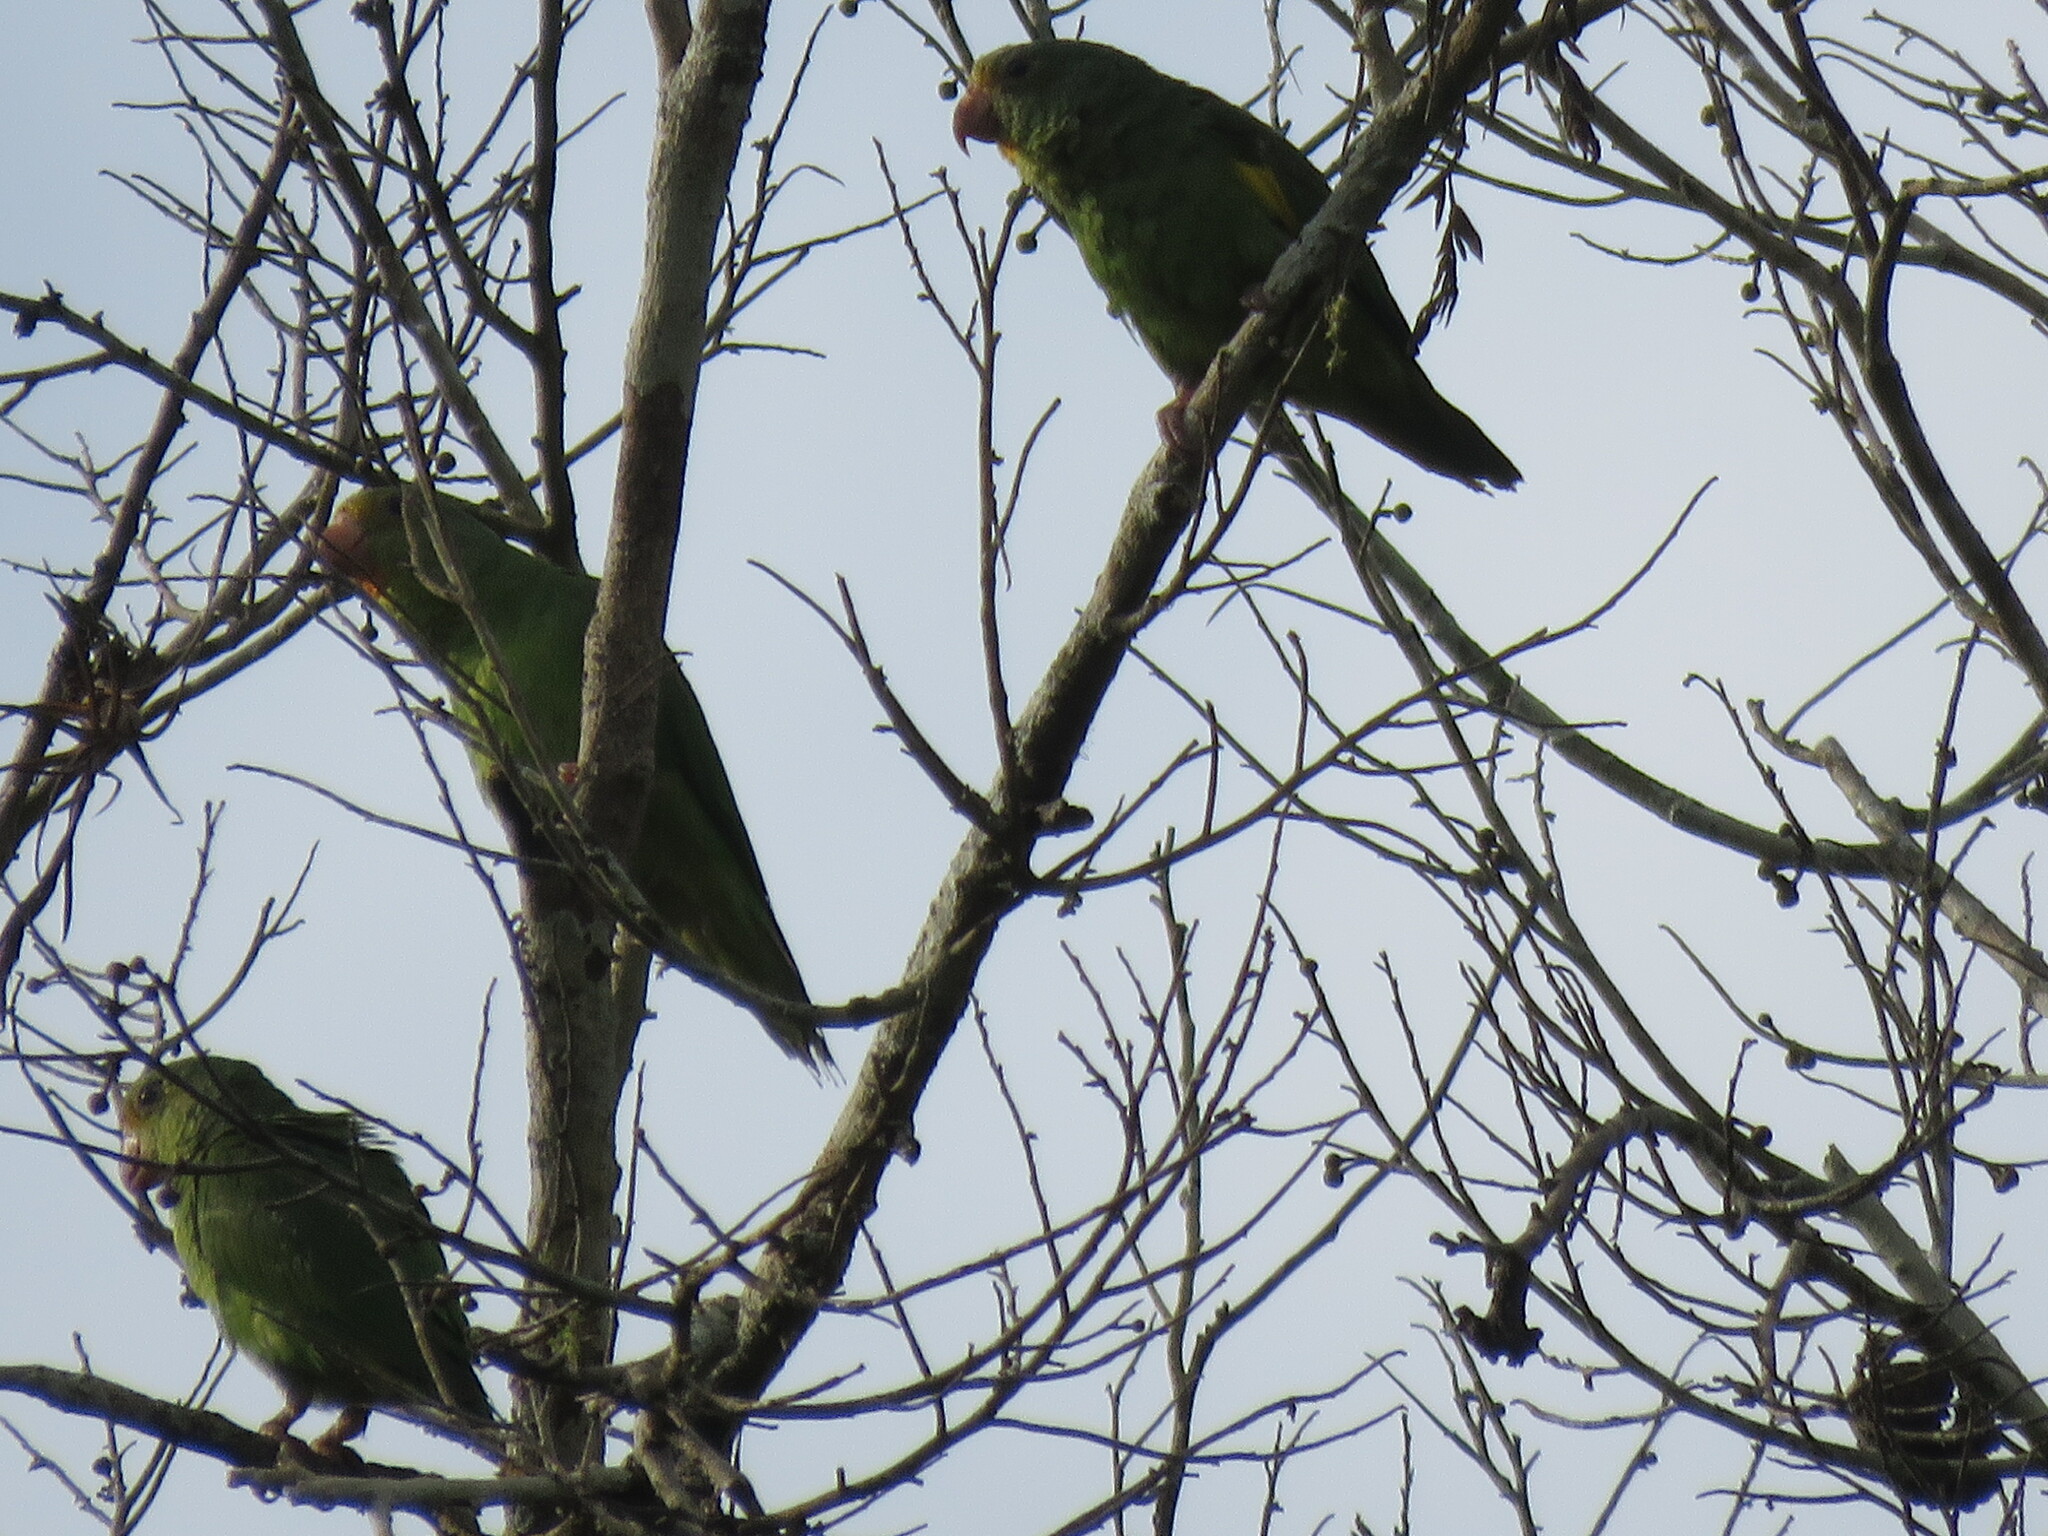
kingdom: Animalia
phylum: Chordata
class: Aves
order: Psittaciformes
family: Psittacidae
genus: Brotogeris
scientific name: Brotogeris cyanoptera
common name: Cobalt-winged parakeet
